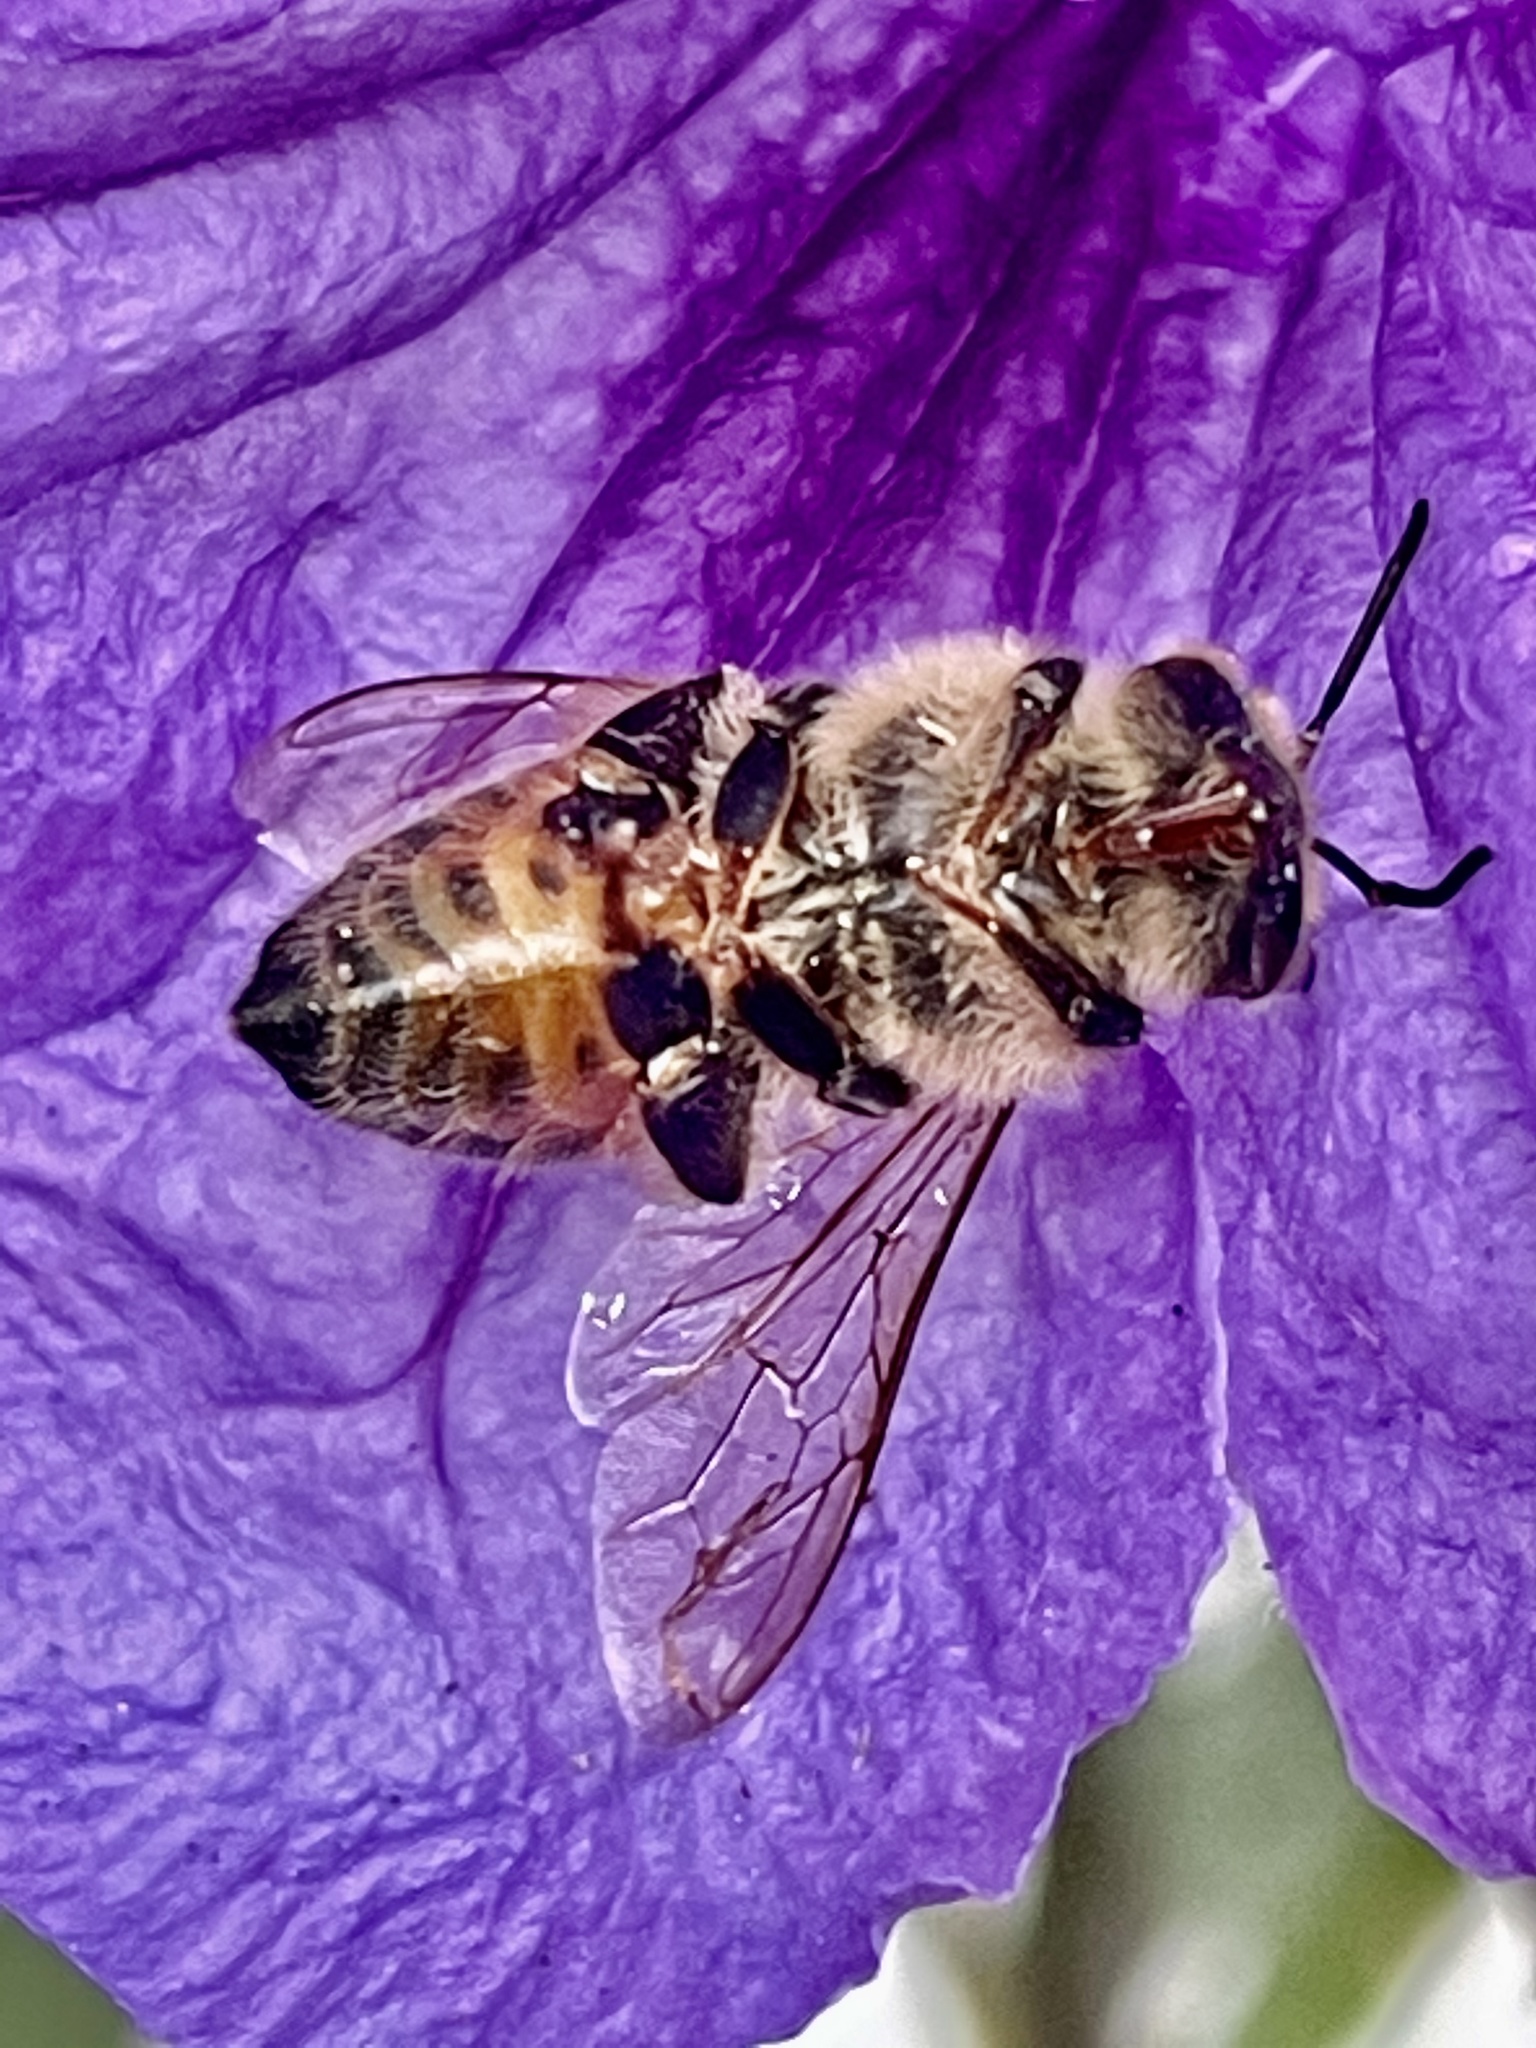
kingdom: Animalia
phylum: Arthropoda
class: Insecta
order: Hymenoptera
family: Apidae
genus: Apis
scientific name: Apis mellifera
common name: Honey bee
